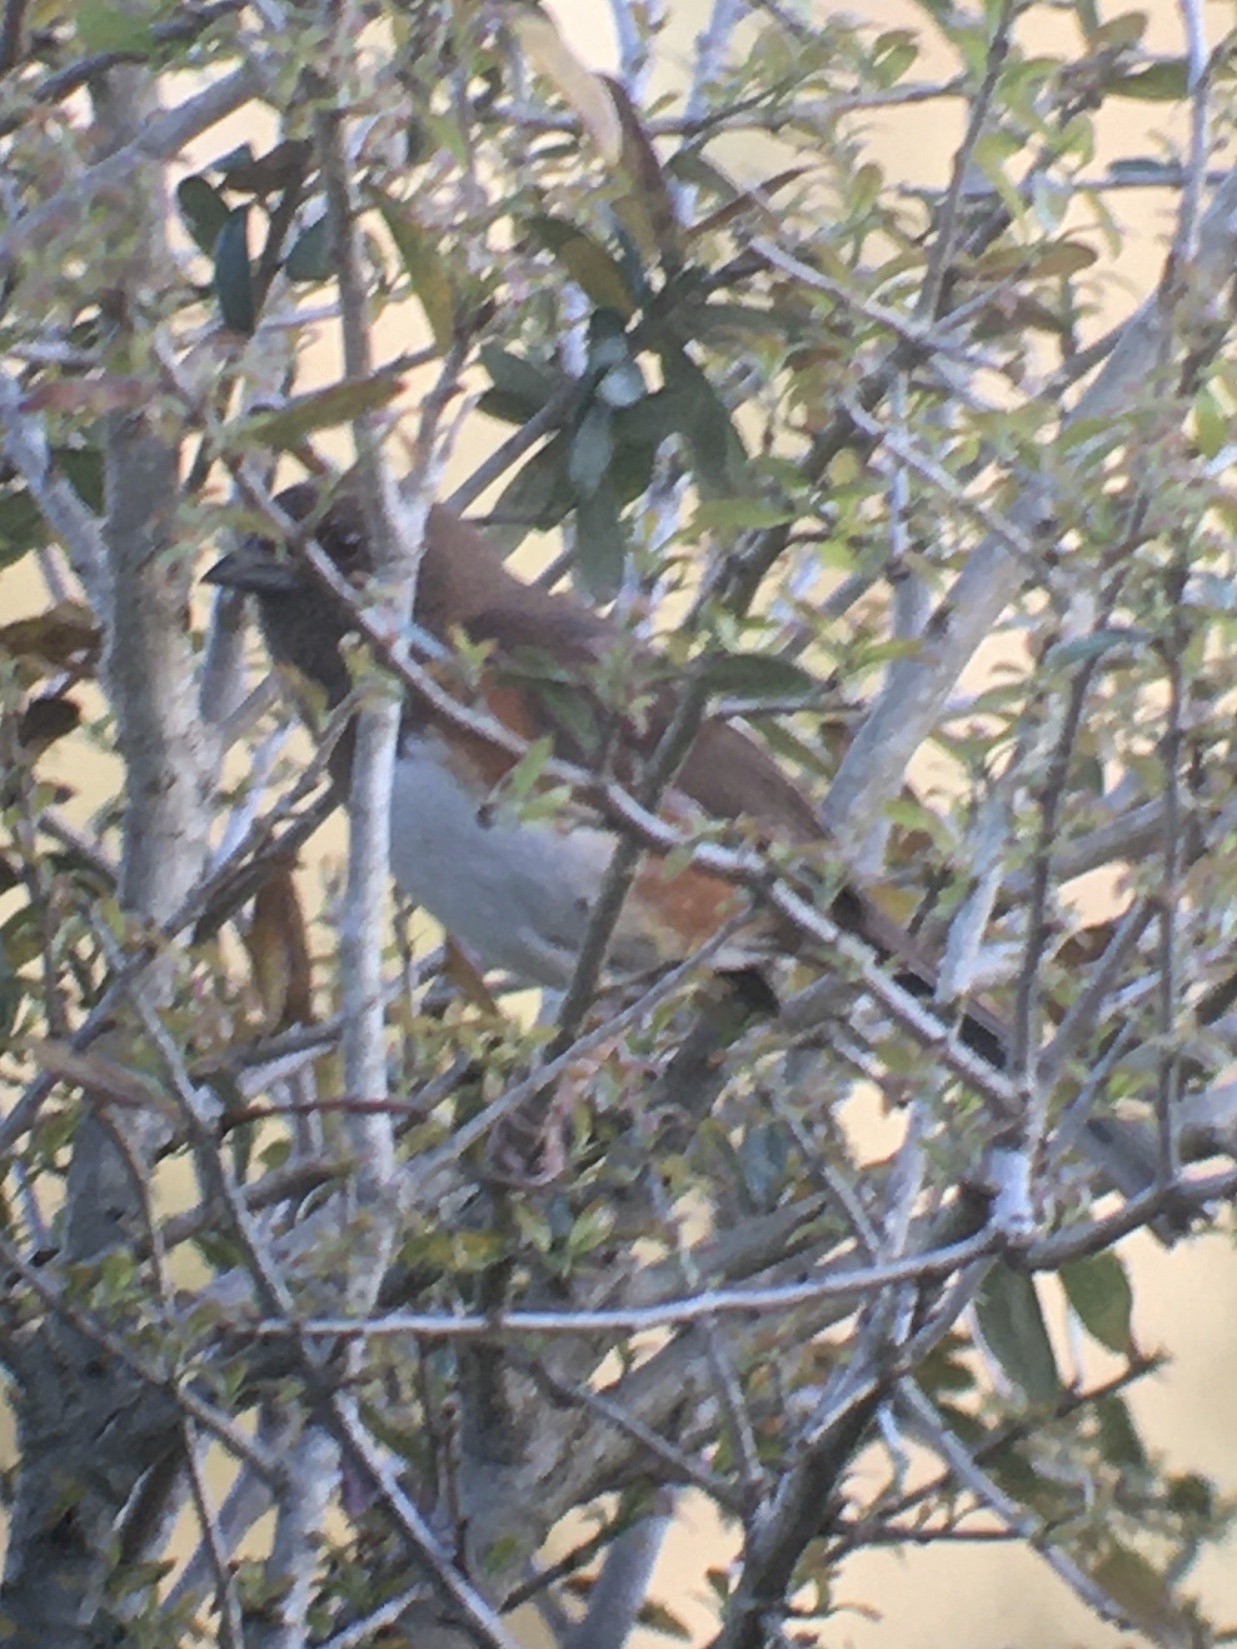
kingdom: Animalia
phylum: Chordata
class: Aves
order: Passeriformes
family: Passerellidae
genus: Pipilo
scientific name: Pipilo erythrophthalmus
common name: Eastern towhee
